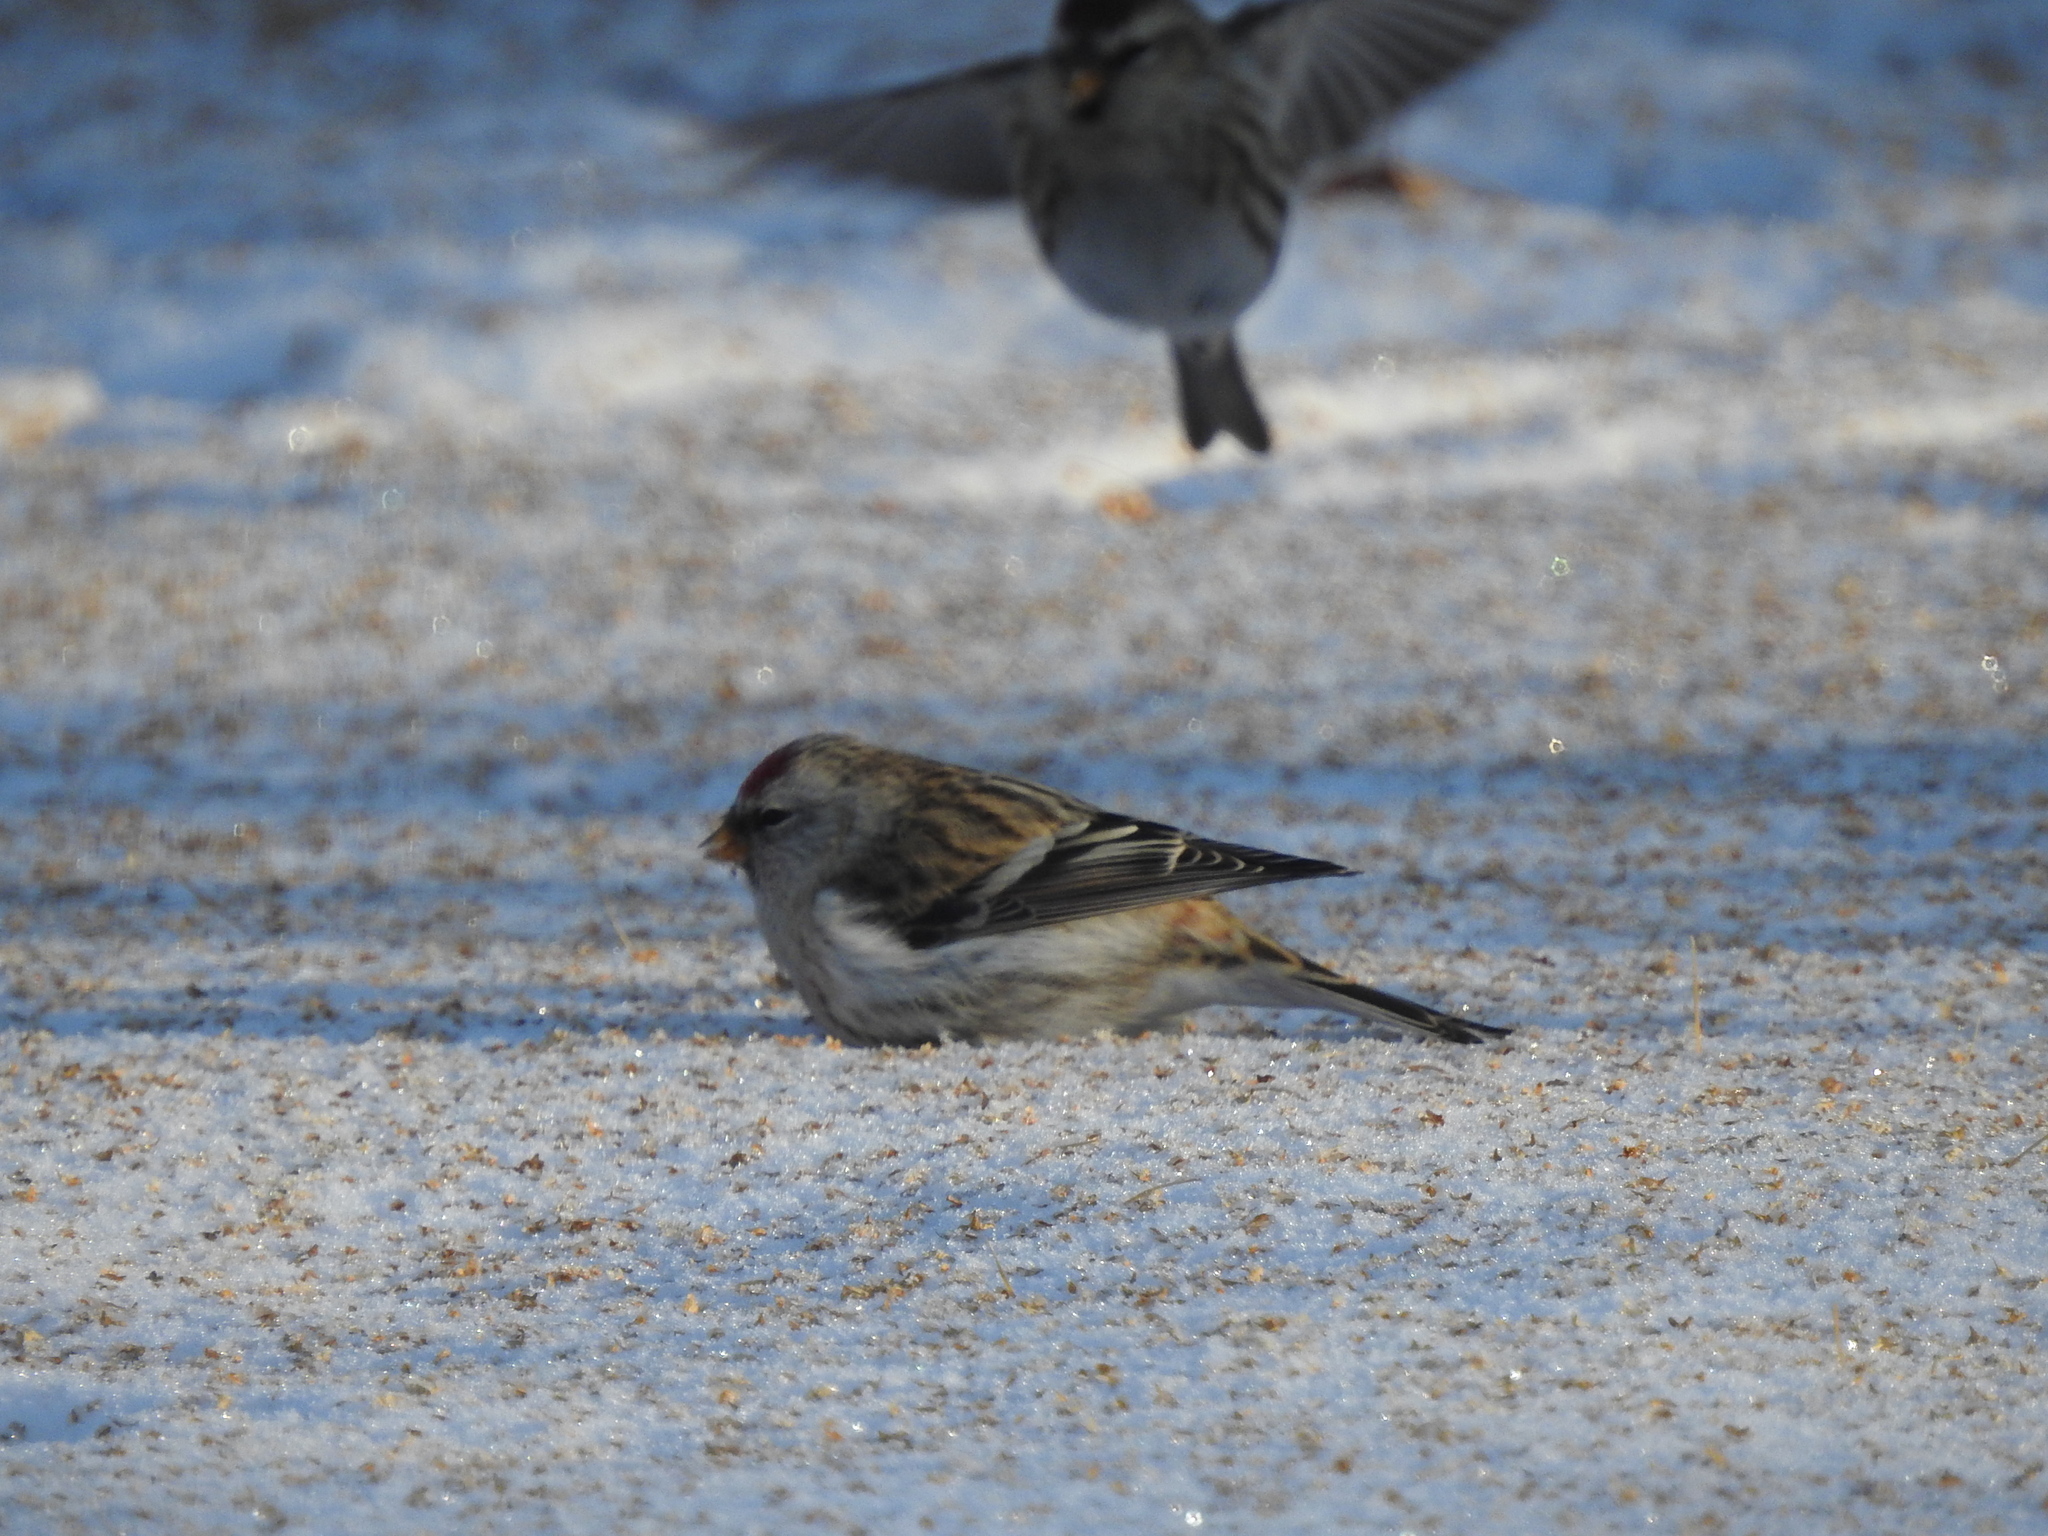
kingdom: Animalia
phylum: Chordata
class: Aves
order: Passeriformes
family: Fringillidae
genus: Acanthis
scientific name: Acanthis flammea
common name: Common redpoll
